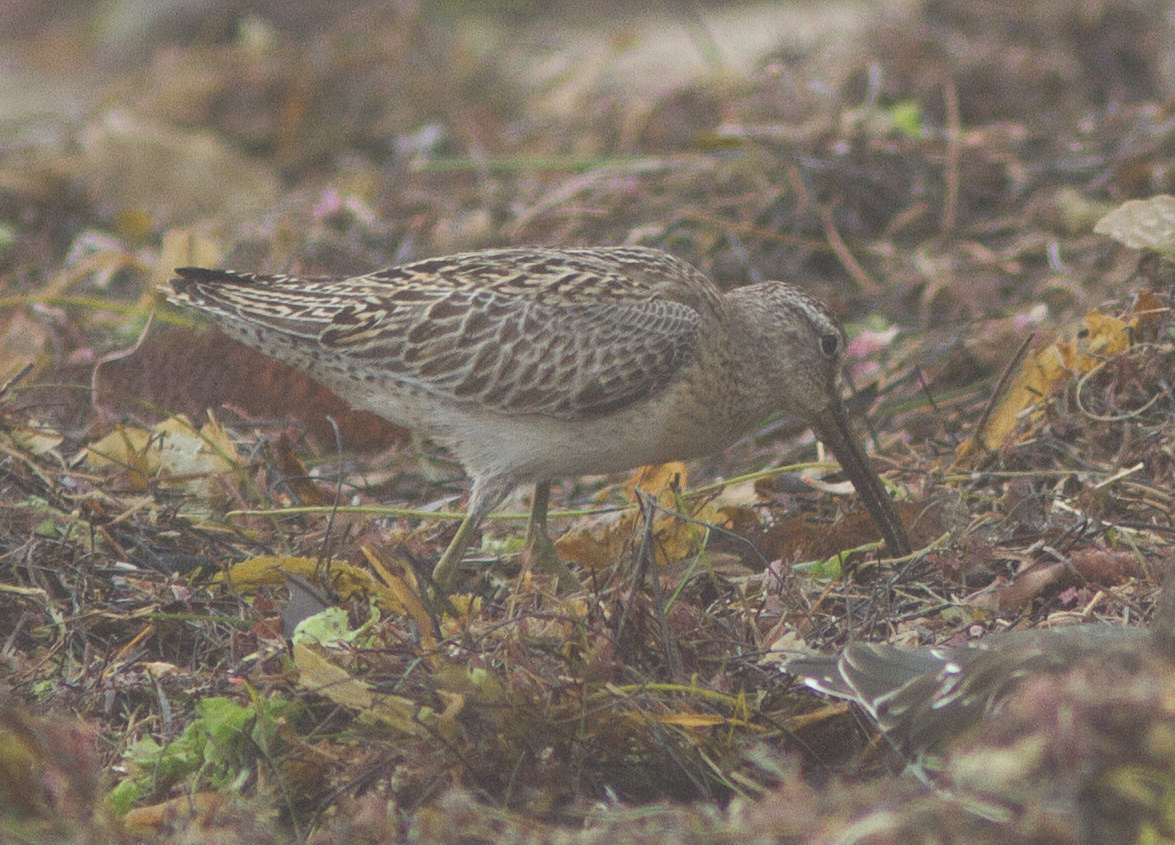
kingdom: Animalia
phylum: Chordata
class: Aves
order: Charadriiformes
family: Scolopacidae
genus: Limnodromus
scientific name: Limnodromus griseus
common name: Short-billed dowitcher
